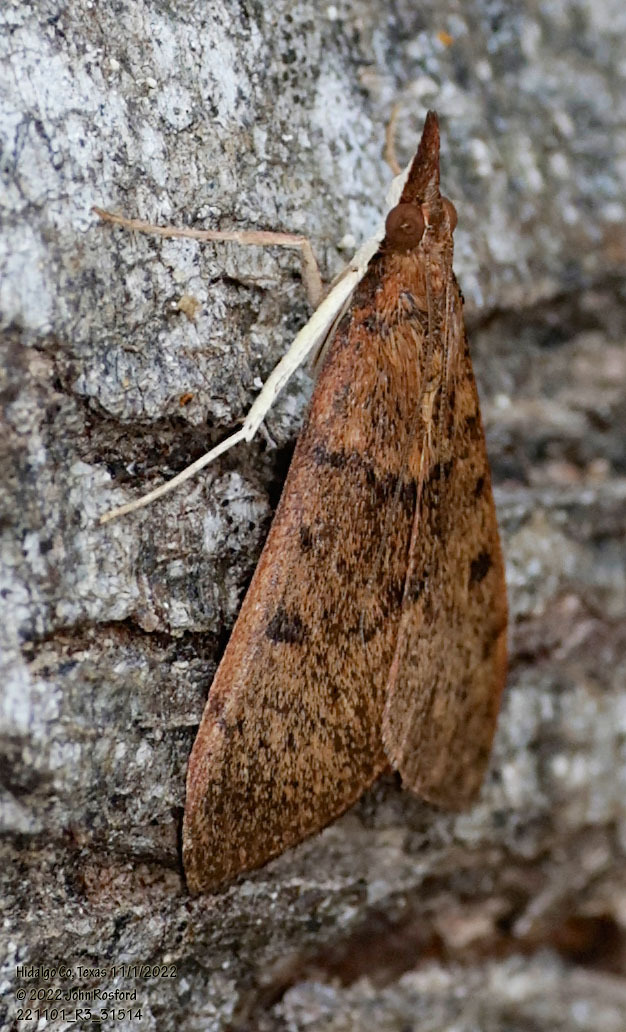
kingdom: Animalia
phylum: Arthropoda
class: Insecta
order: Lepidoptera
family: Crambidae
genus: Uresiphita
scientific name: Uresiphita reversalis
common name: Genista broom moth
